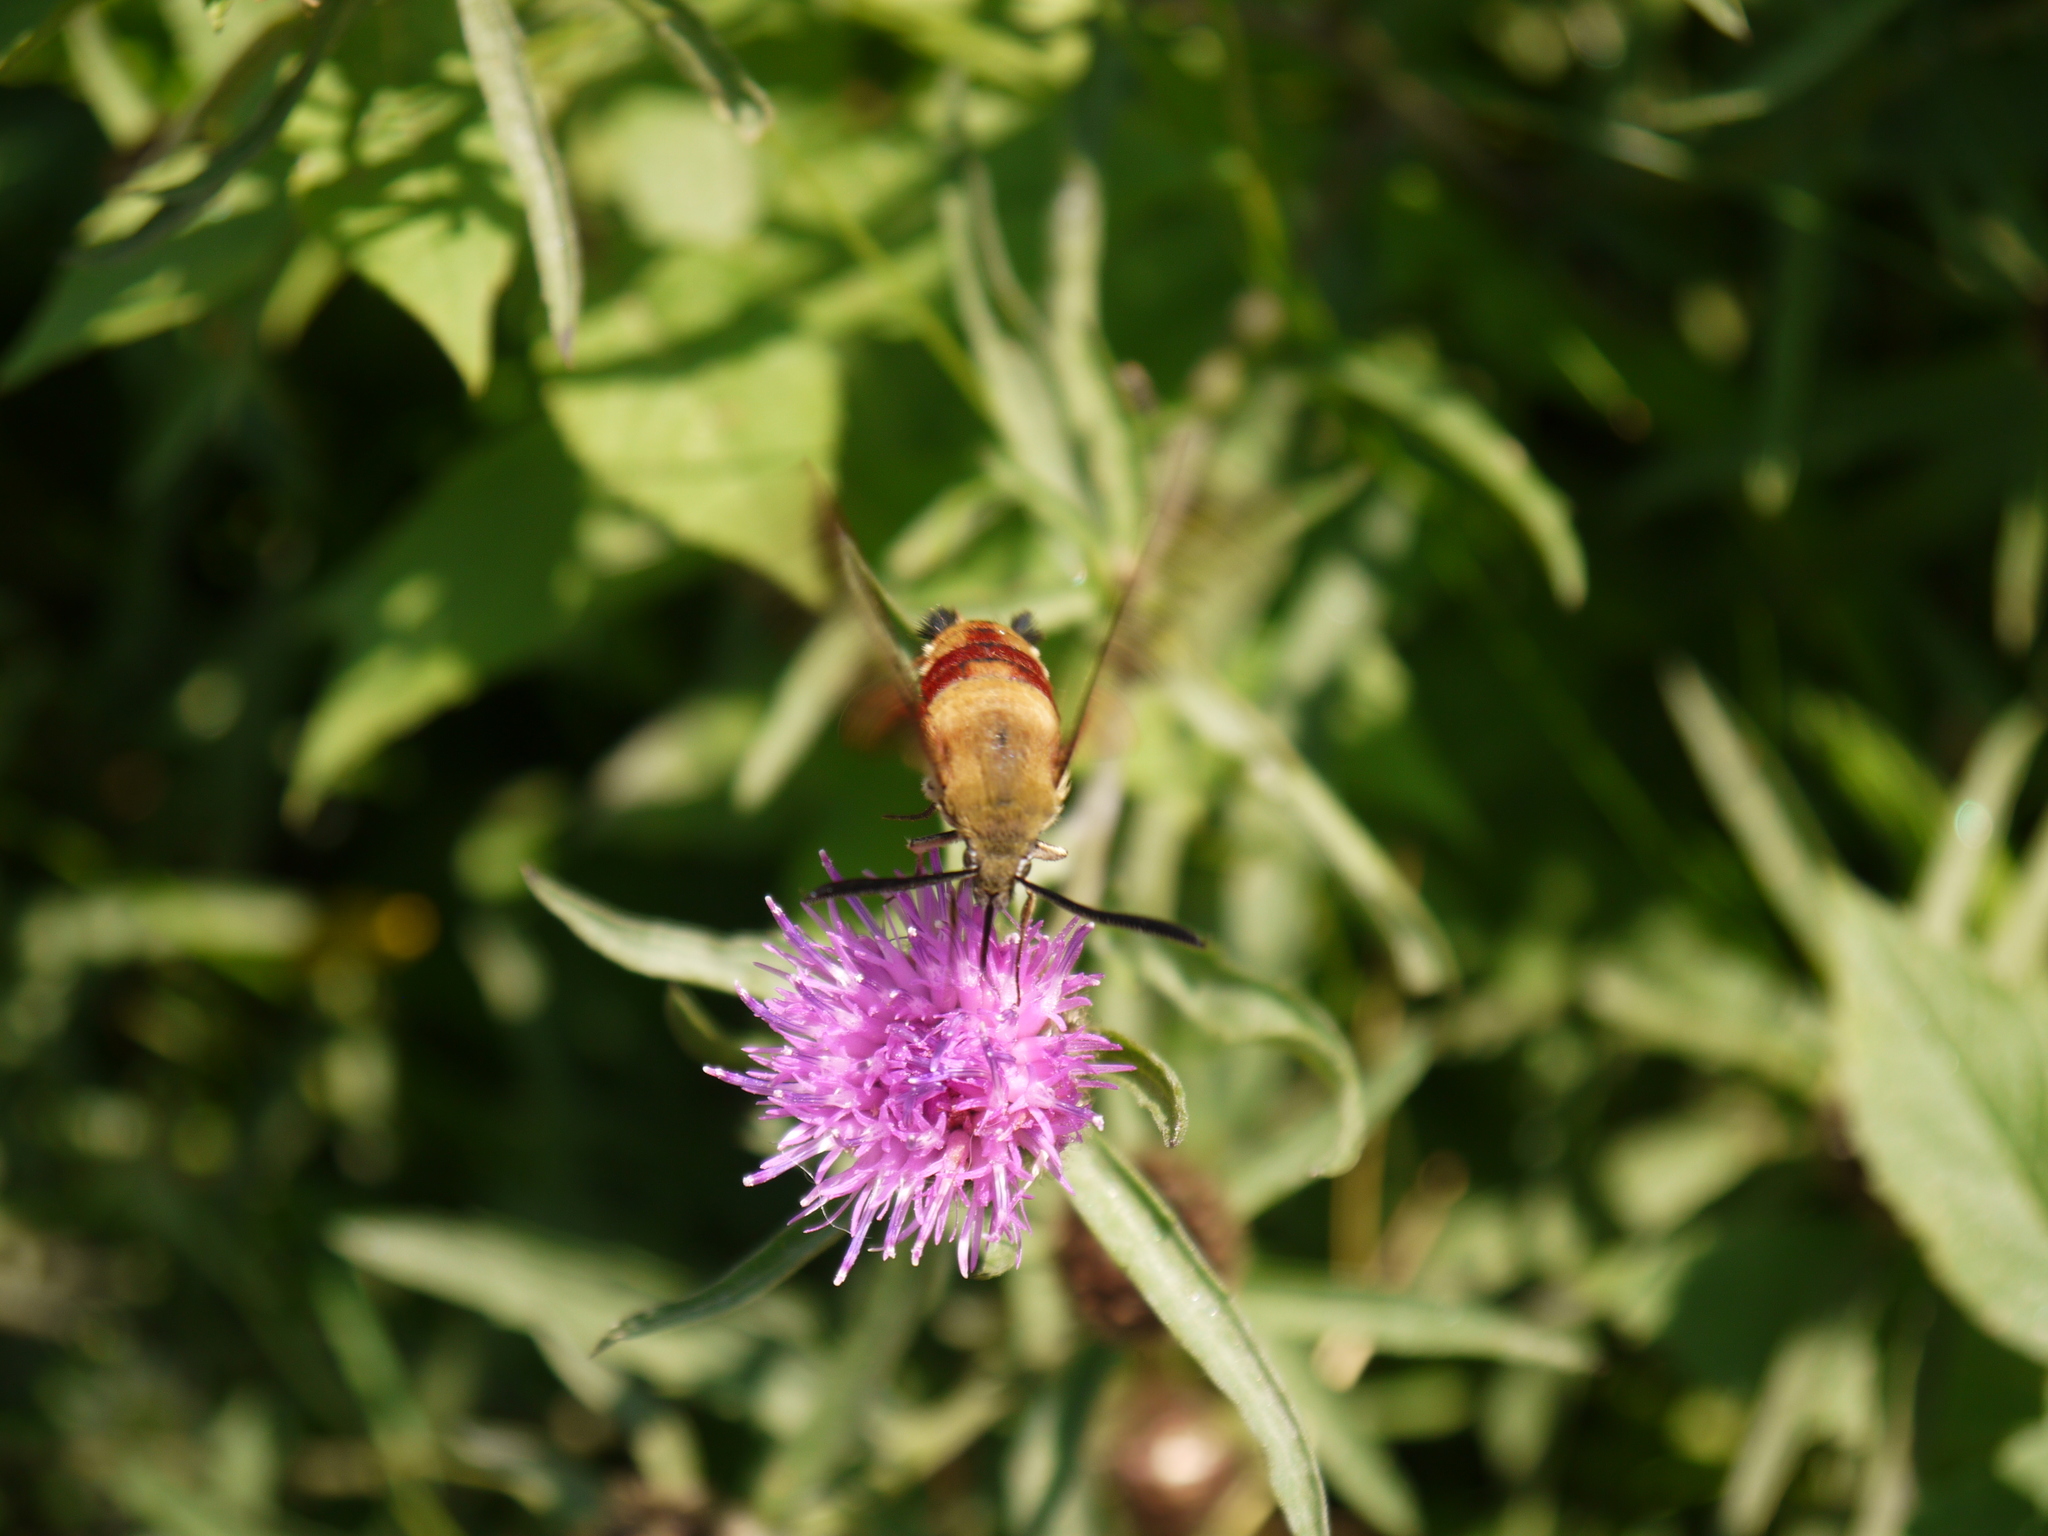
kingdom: Animalia
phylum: Arthropoda
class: Insecta
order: Lepidoptera
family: Sphingidae
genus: Hemaris
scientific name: Hemaris thysbe
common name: Common clear-wing
